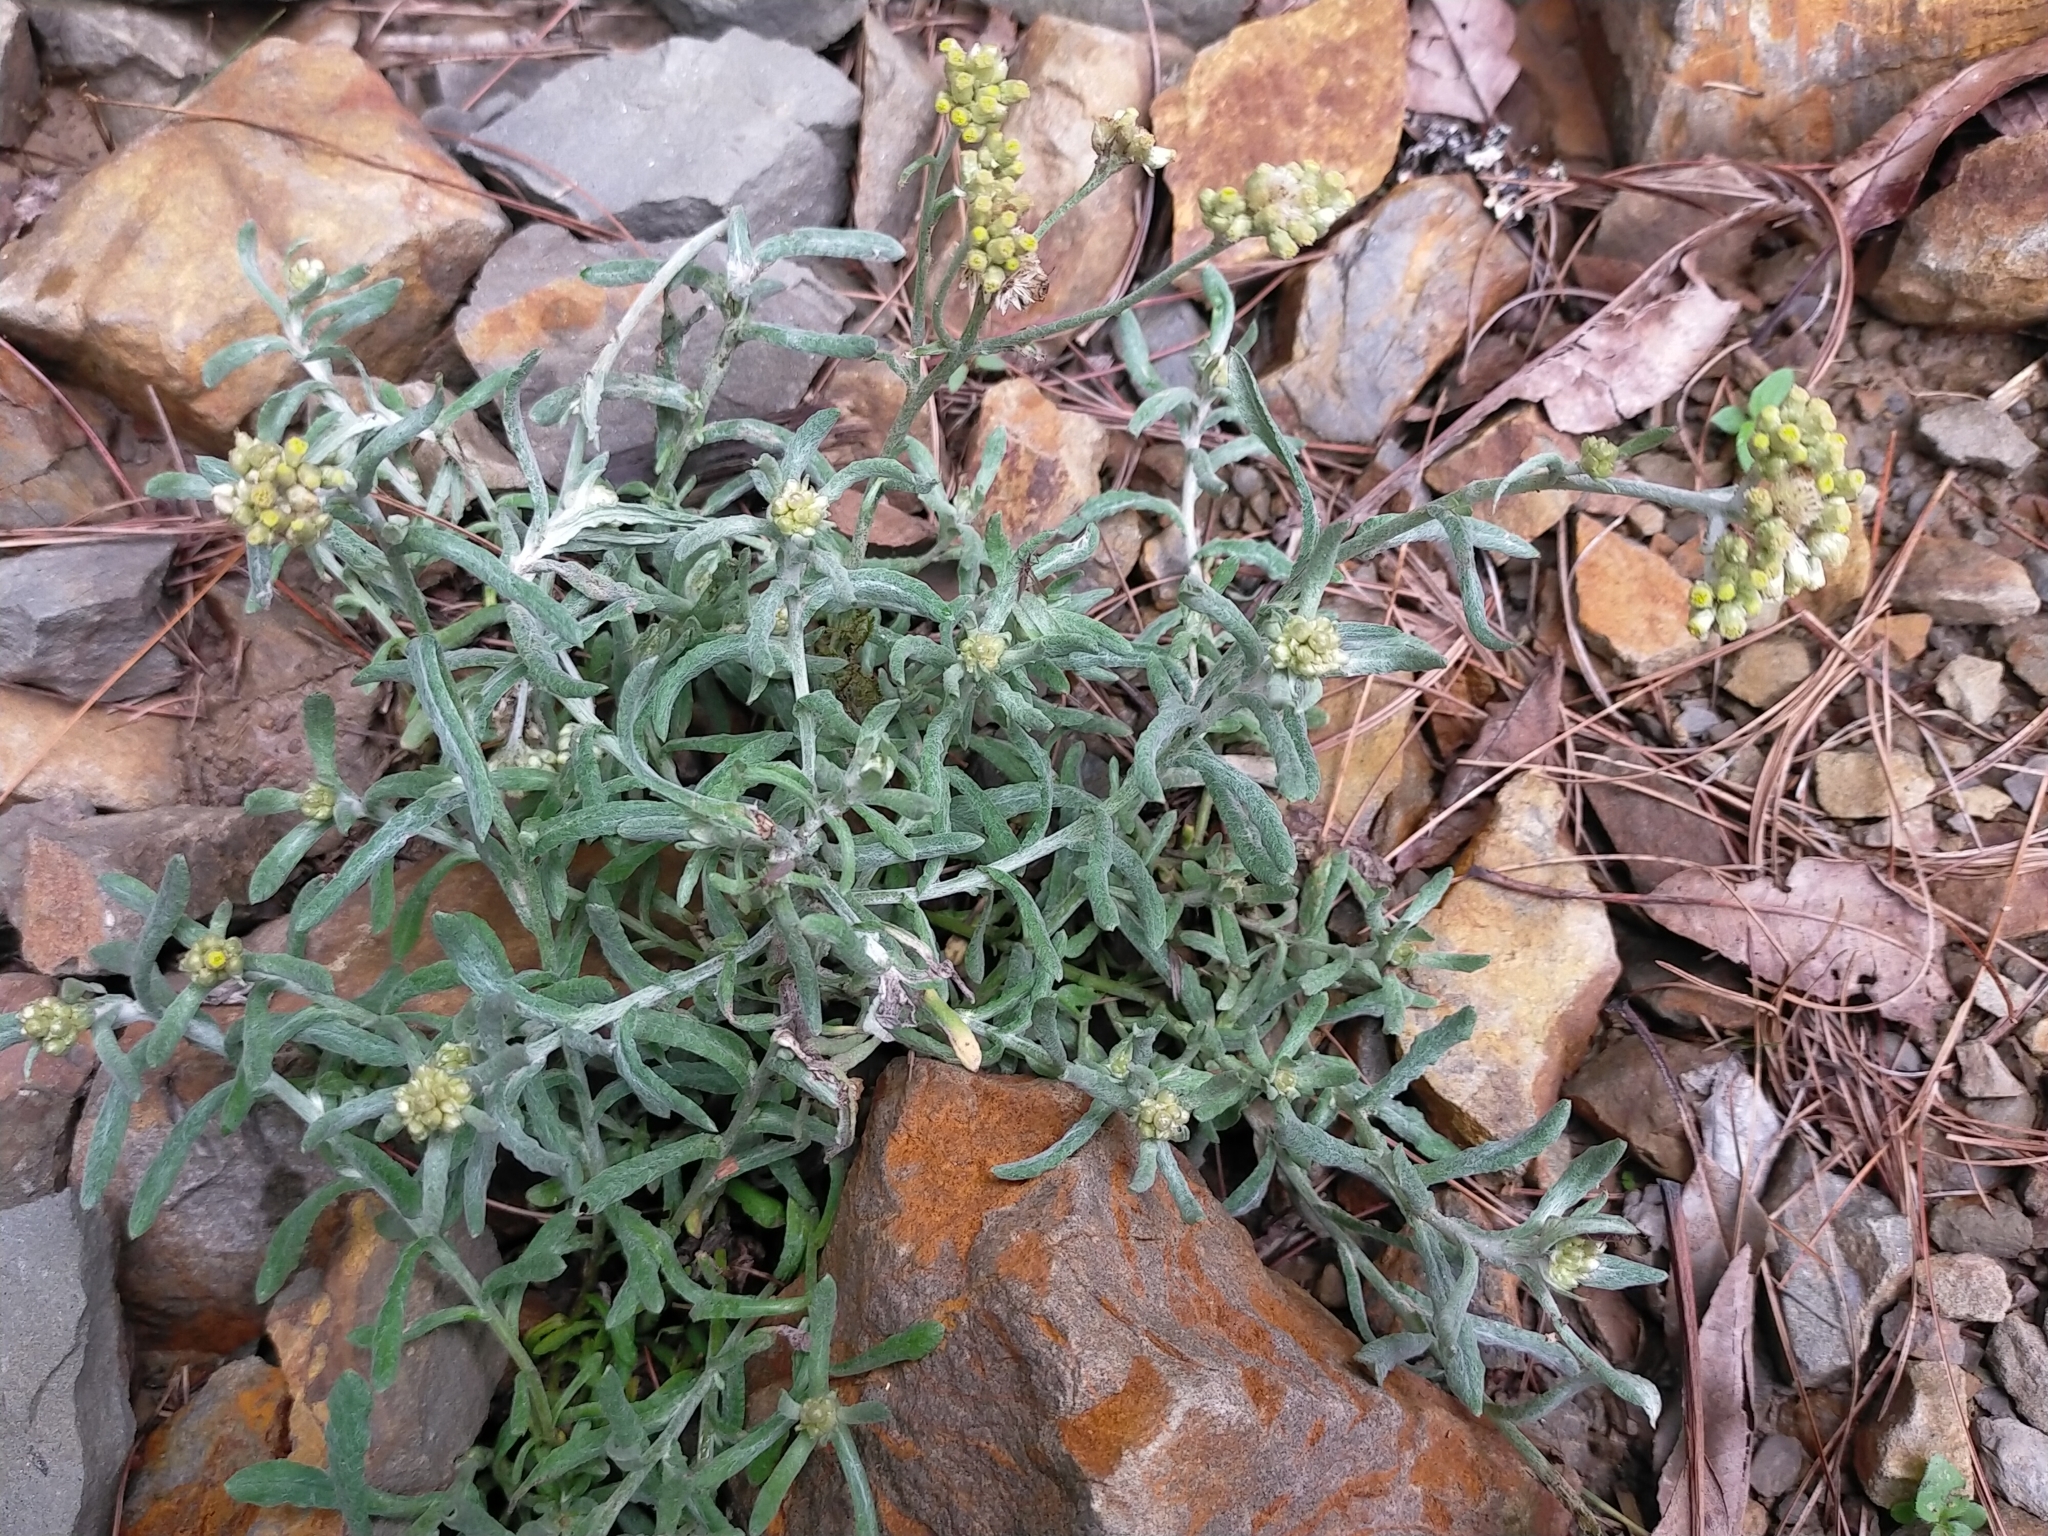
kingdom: Plantae
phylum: Tracheophyta
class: Magnoliopsida
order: Asterales
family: Asteraceae
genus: Pseudognaphalium
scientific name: Pseudognaphalium affine
